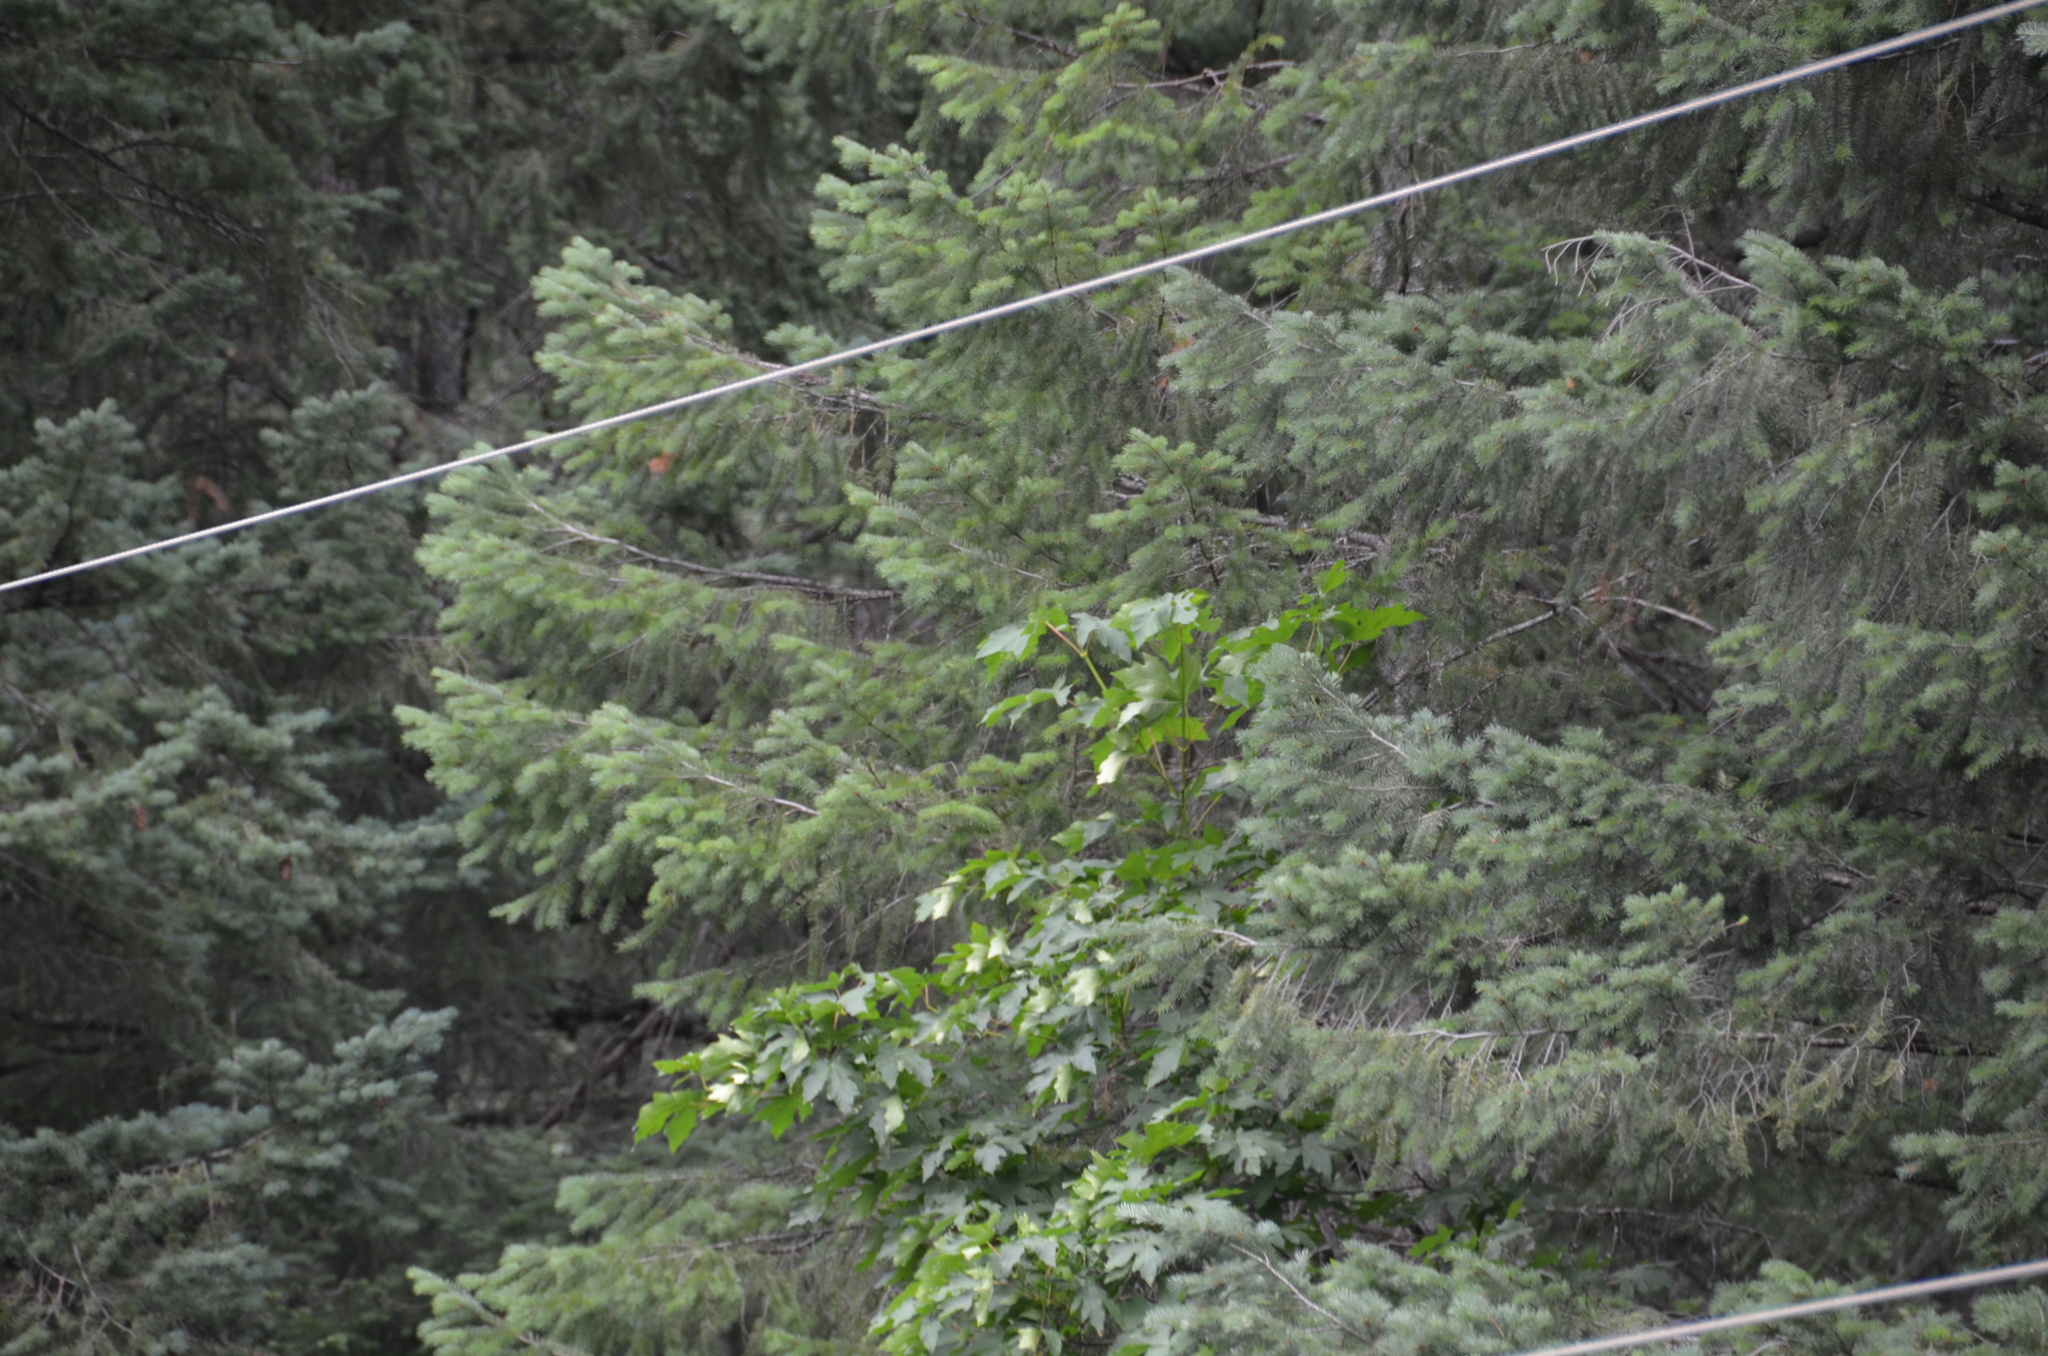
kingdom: Plantae
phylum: Tracheophyta
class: Magnoliopsida
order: Sapindales
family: Sapindaceae
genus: Acer
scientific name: Acer macrophyllum
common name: Oregon maple
